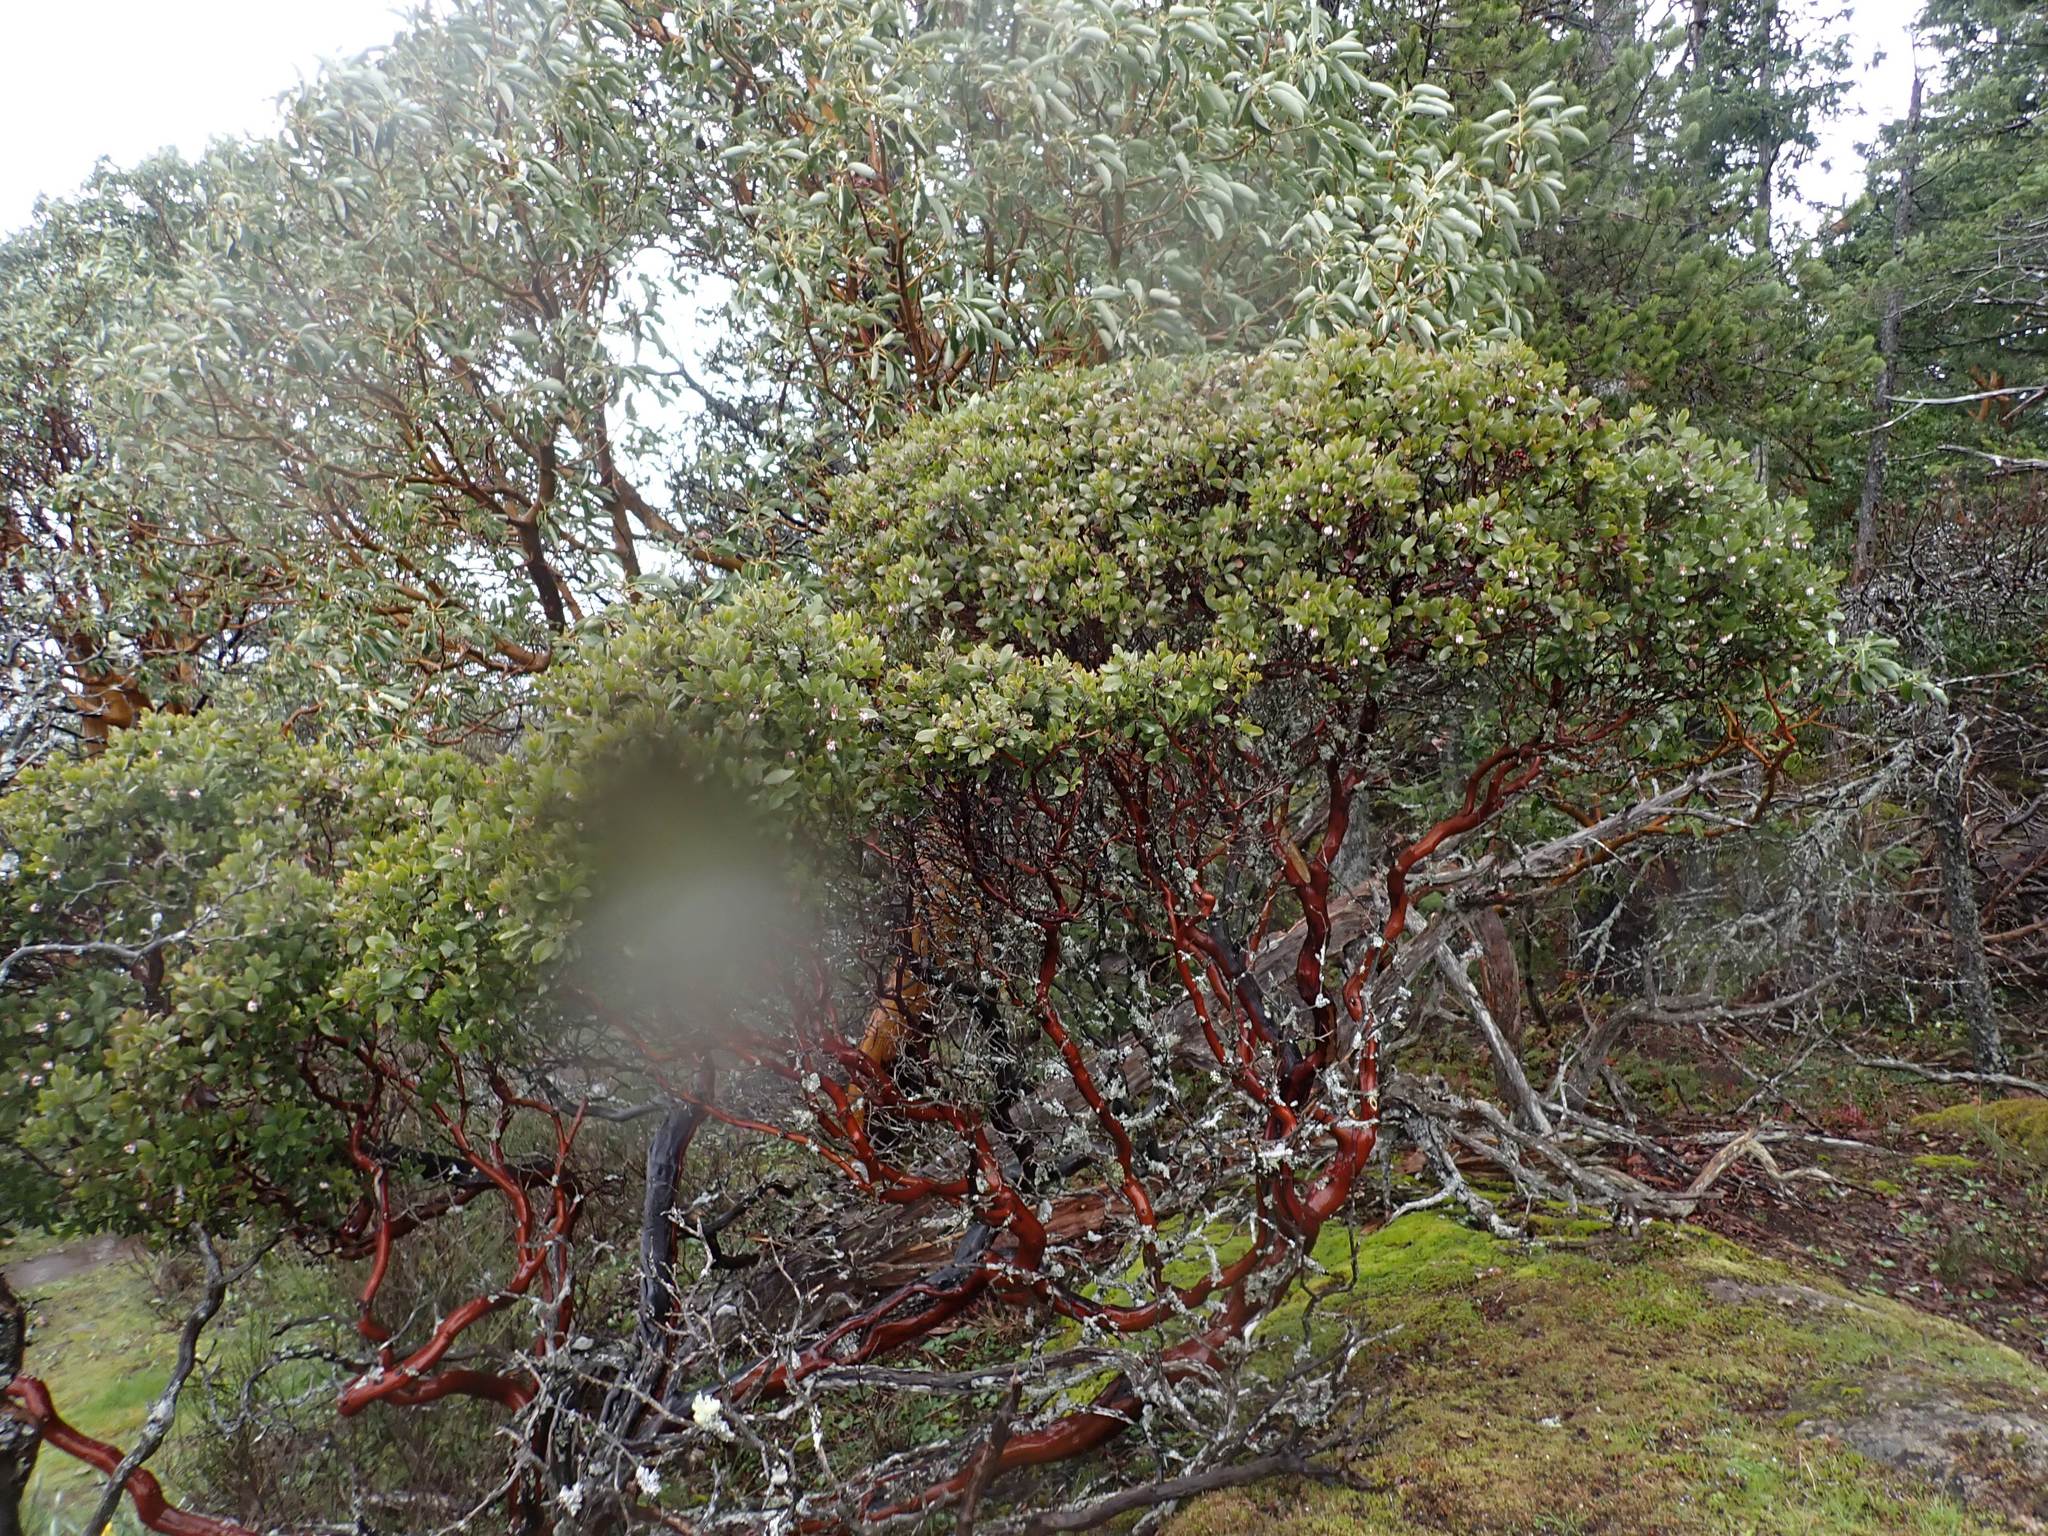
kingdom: Plantae
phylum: Tracheophyta
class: Magnoliopsida
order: Ericales
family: Ericaceae
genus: Arctostaphylos
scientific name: Arctostaphylos columbiana
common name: Bristly bearberry
